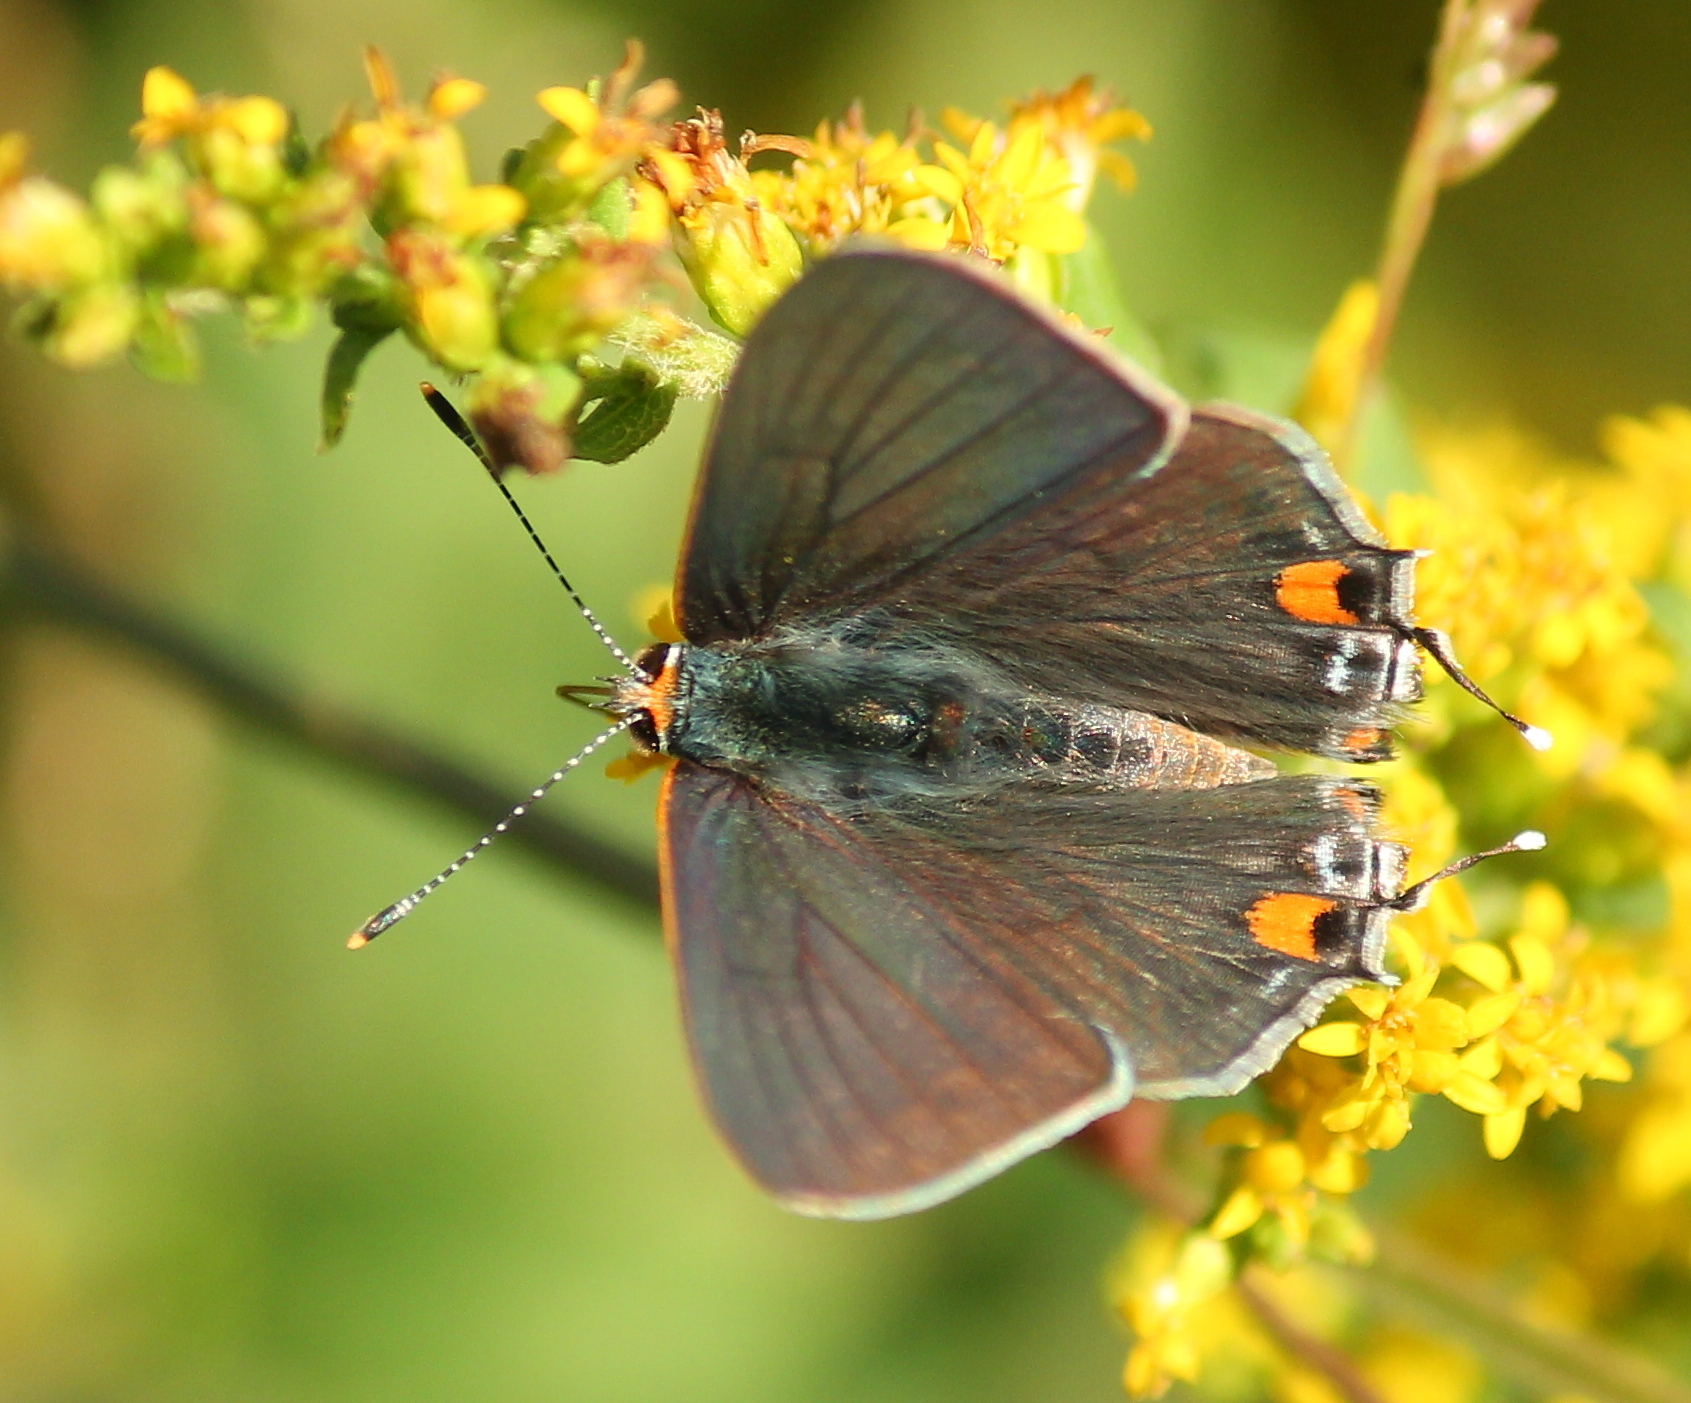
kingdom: Animalia
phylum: Arthropoda
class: Insecta
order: Lepidoptera
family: Lycaenidae
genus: Strymon
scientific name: Strymon melinus
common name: Gray hairstreak
